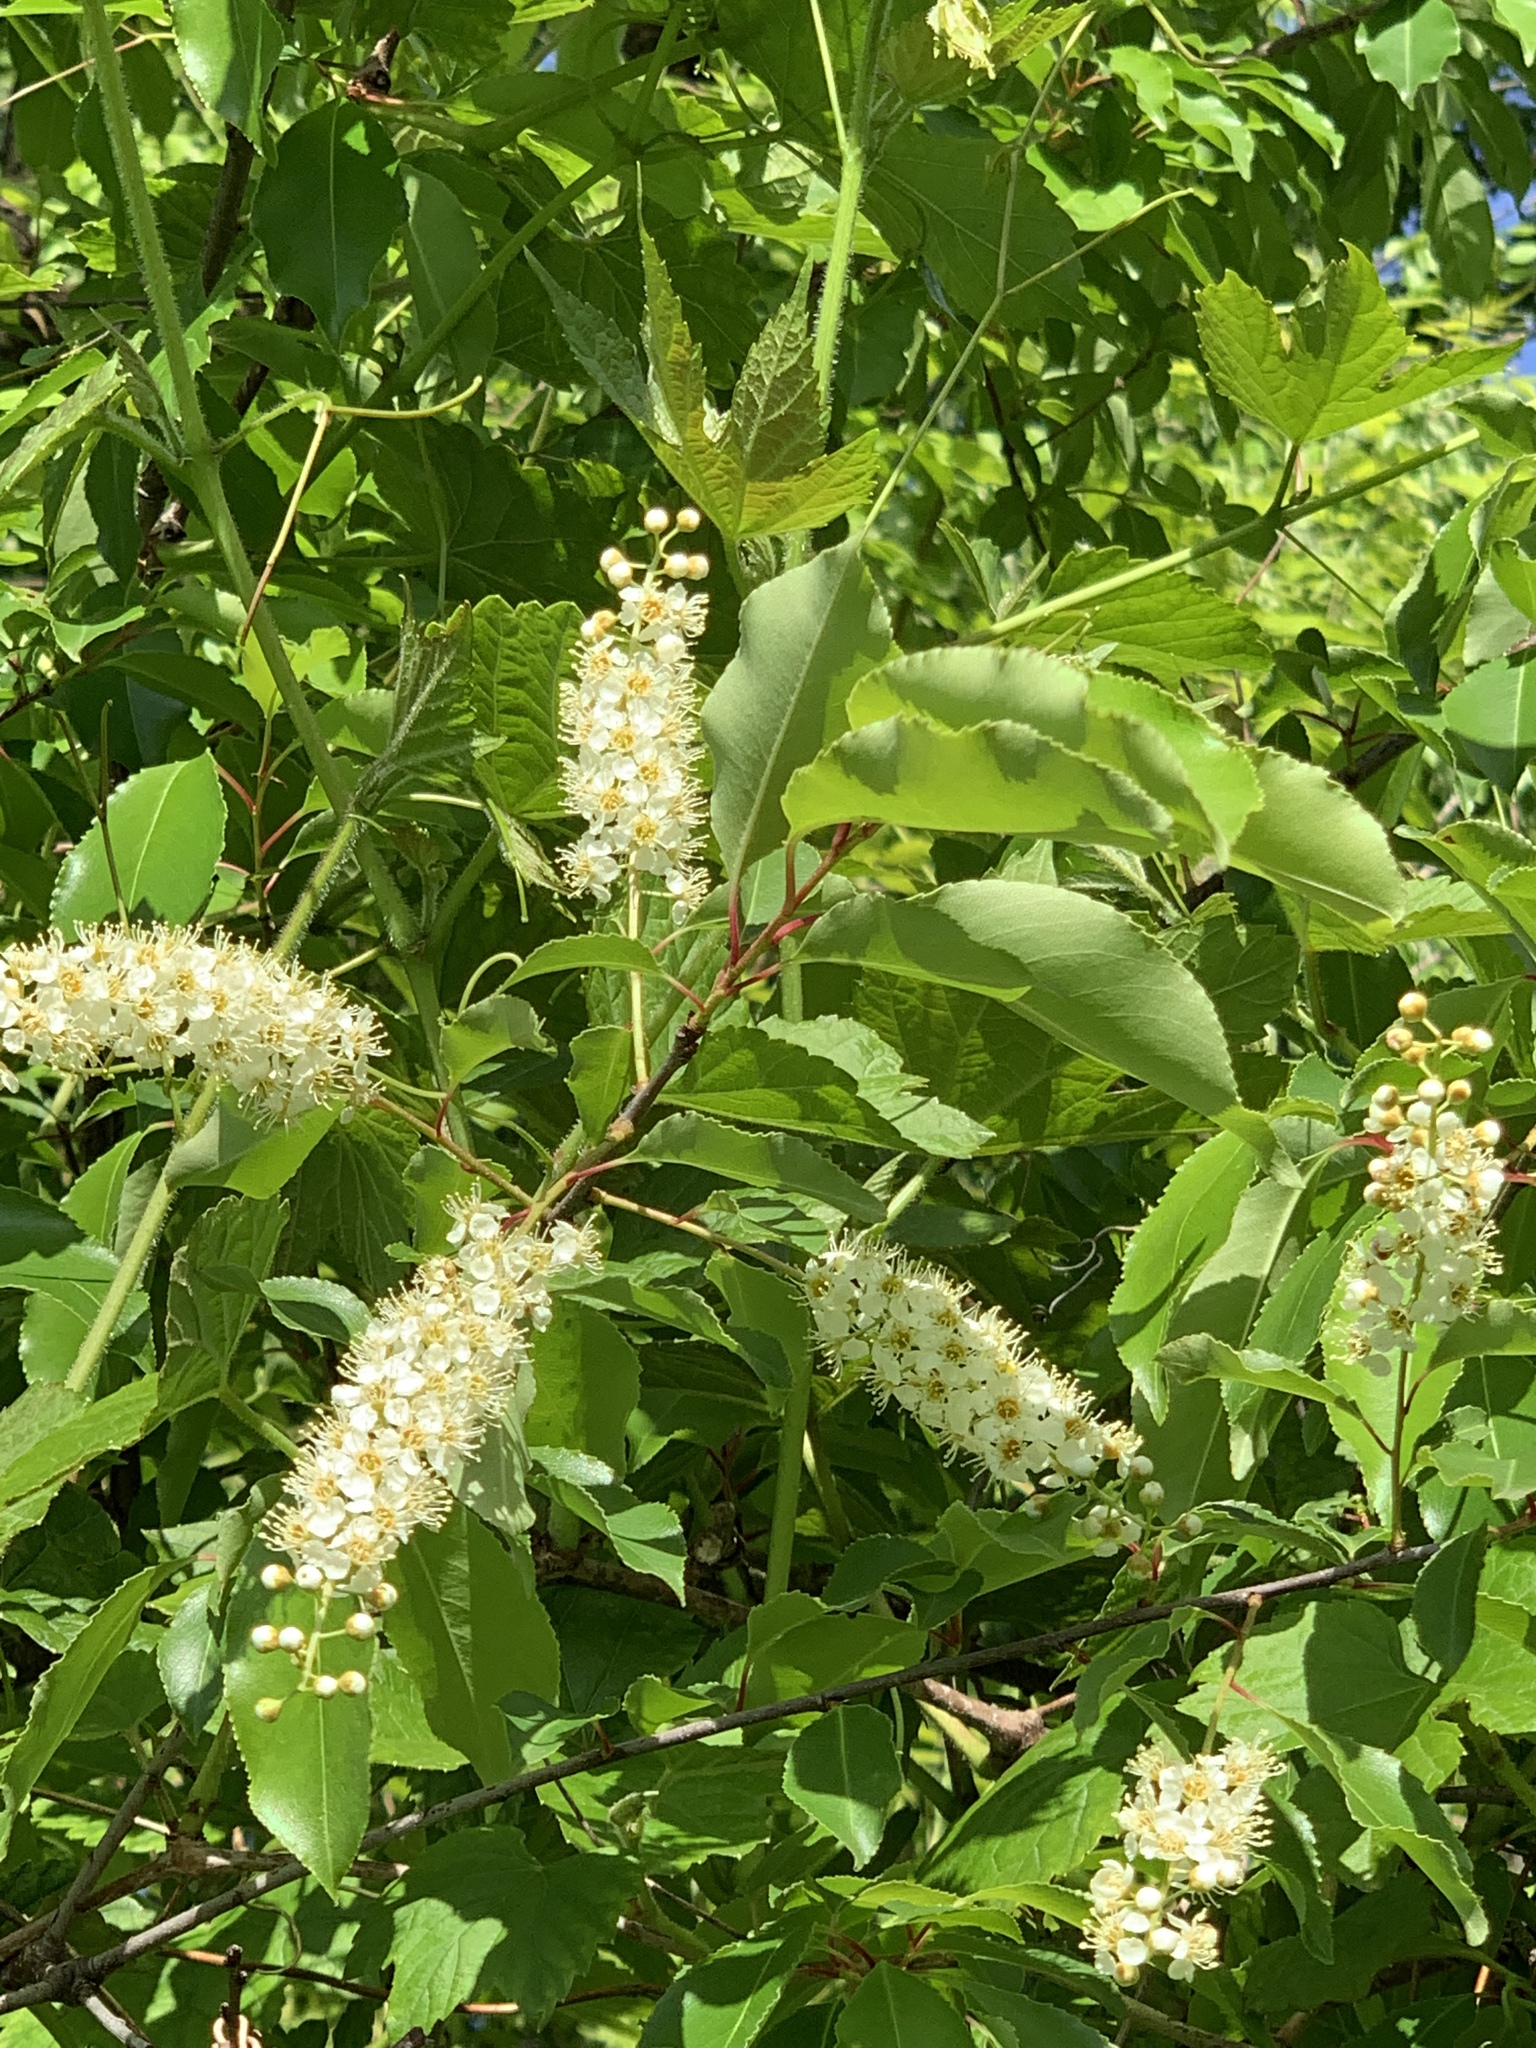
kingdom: Plantae
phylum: Tracheophyta
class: Magnoliopsida
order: Rosales
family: Rosaceae
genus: Prunus
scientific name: Prunus serotina
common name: Black cherry
